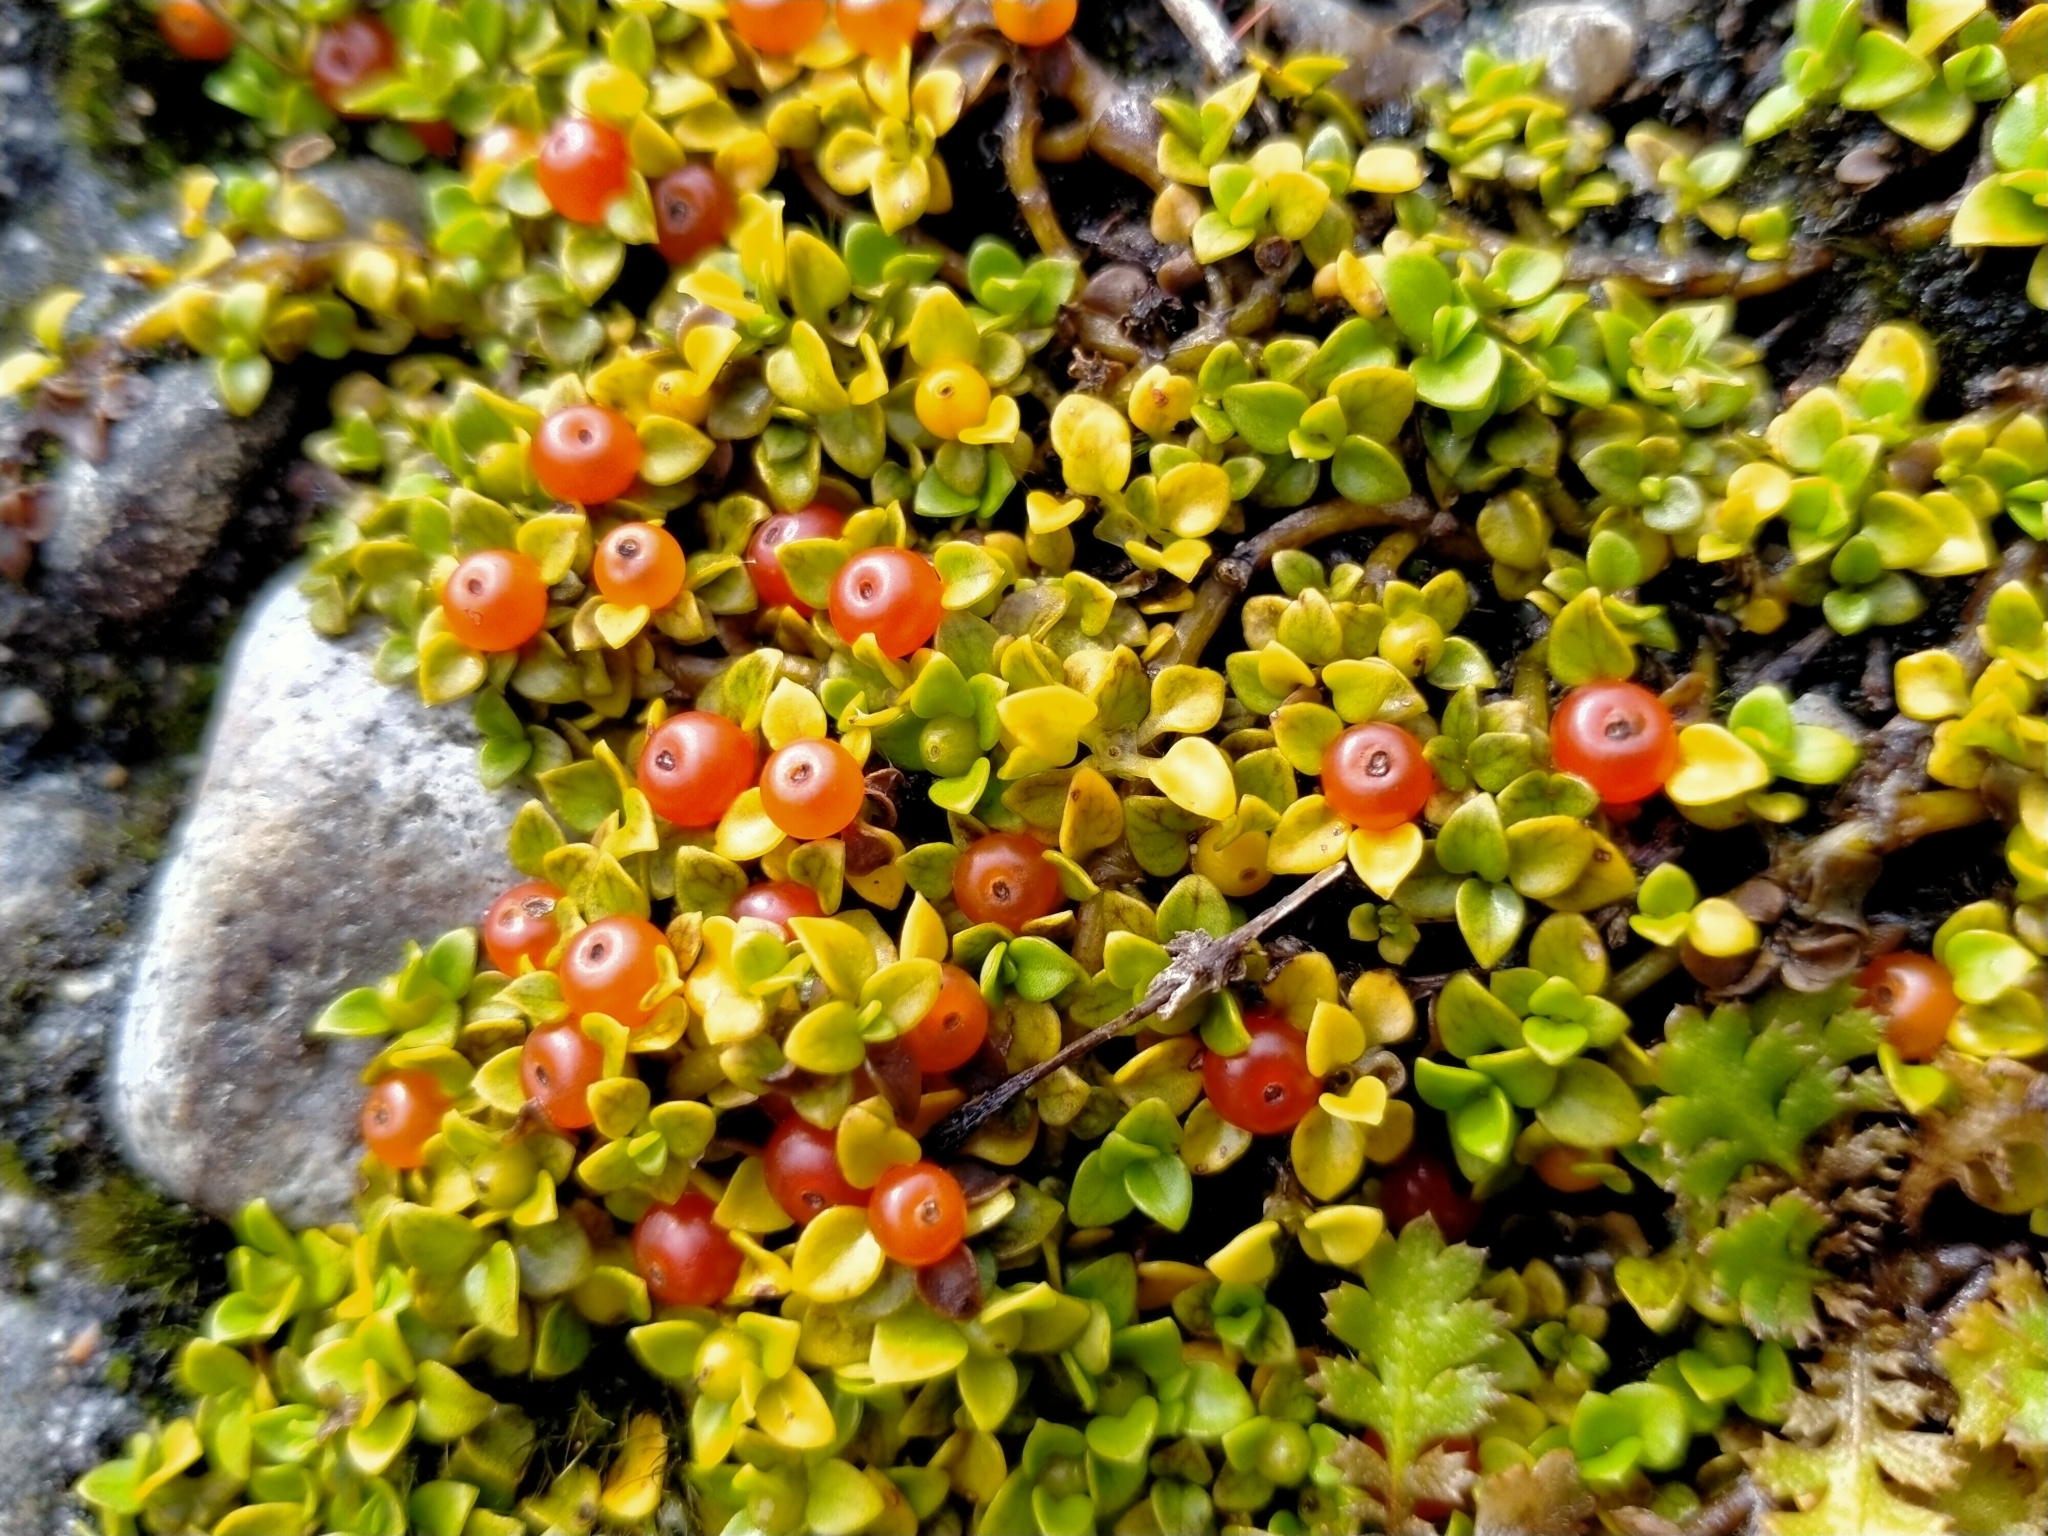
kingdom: Plantae
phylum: Tracheophyta
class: Magnoliopsida
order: Gentianales
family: Rubiaceae
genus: Nertera
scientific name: Nertera granadensis
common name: Beadplant
